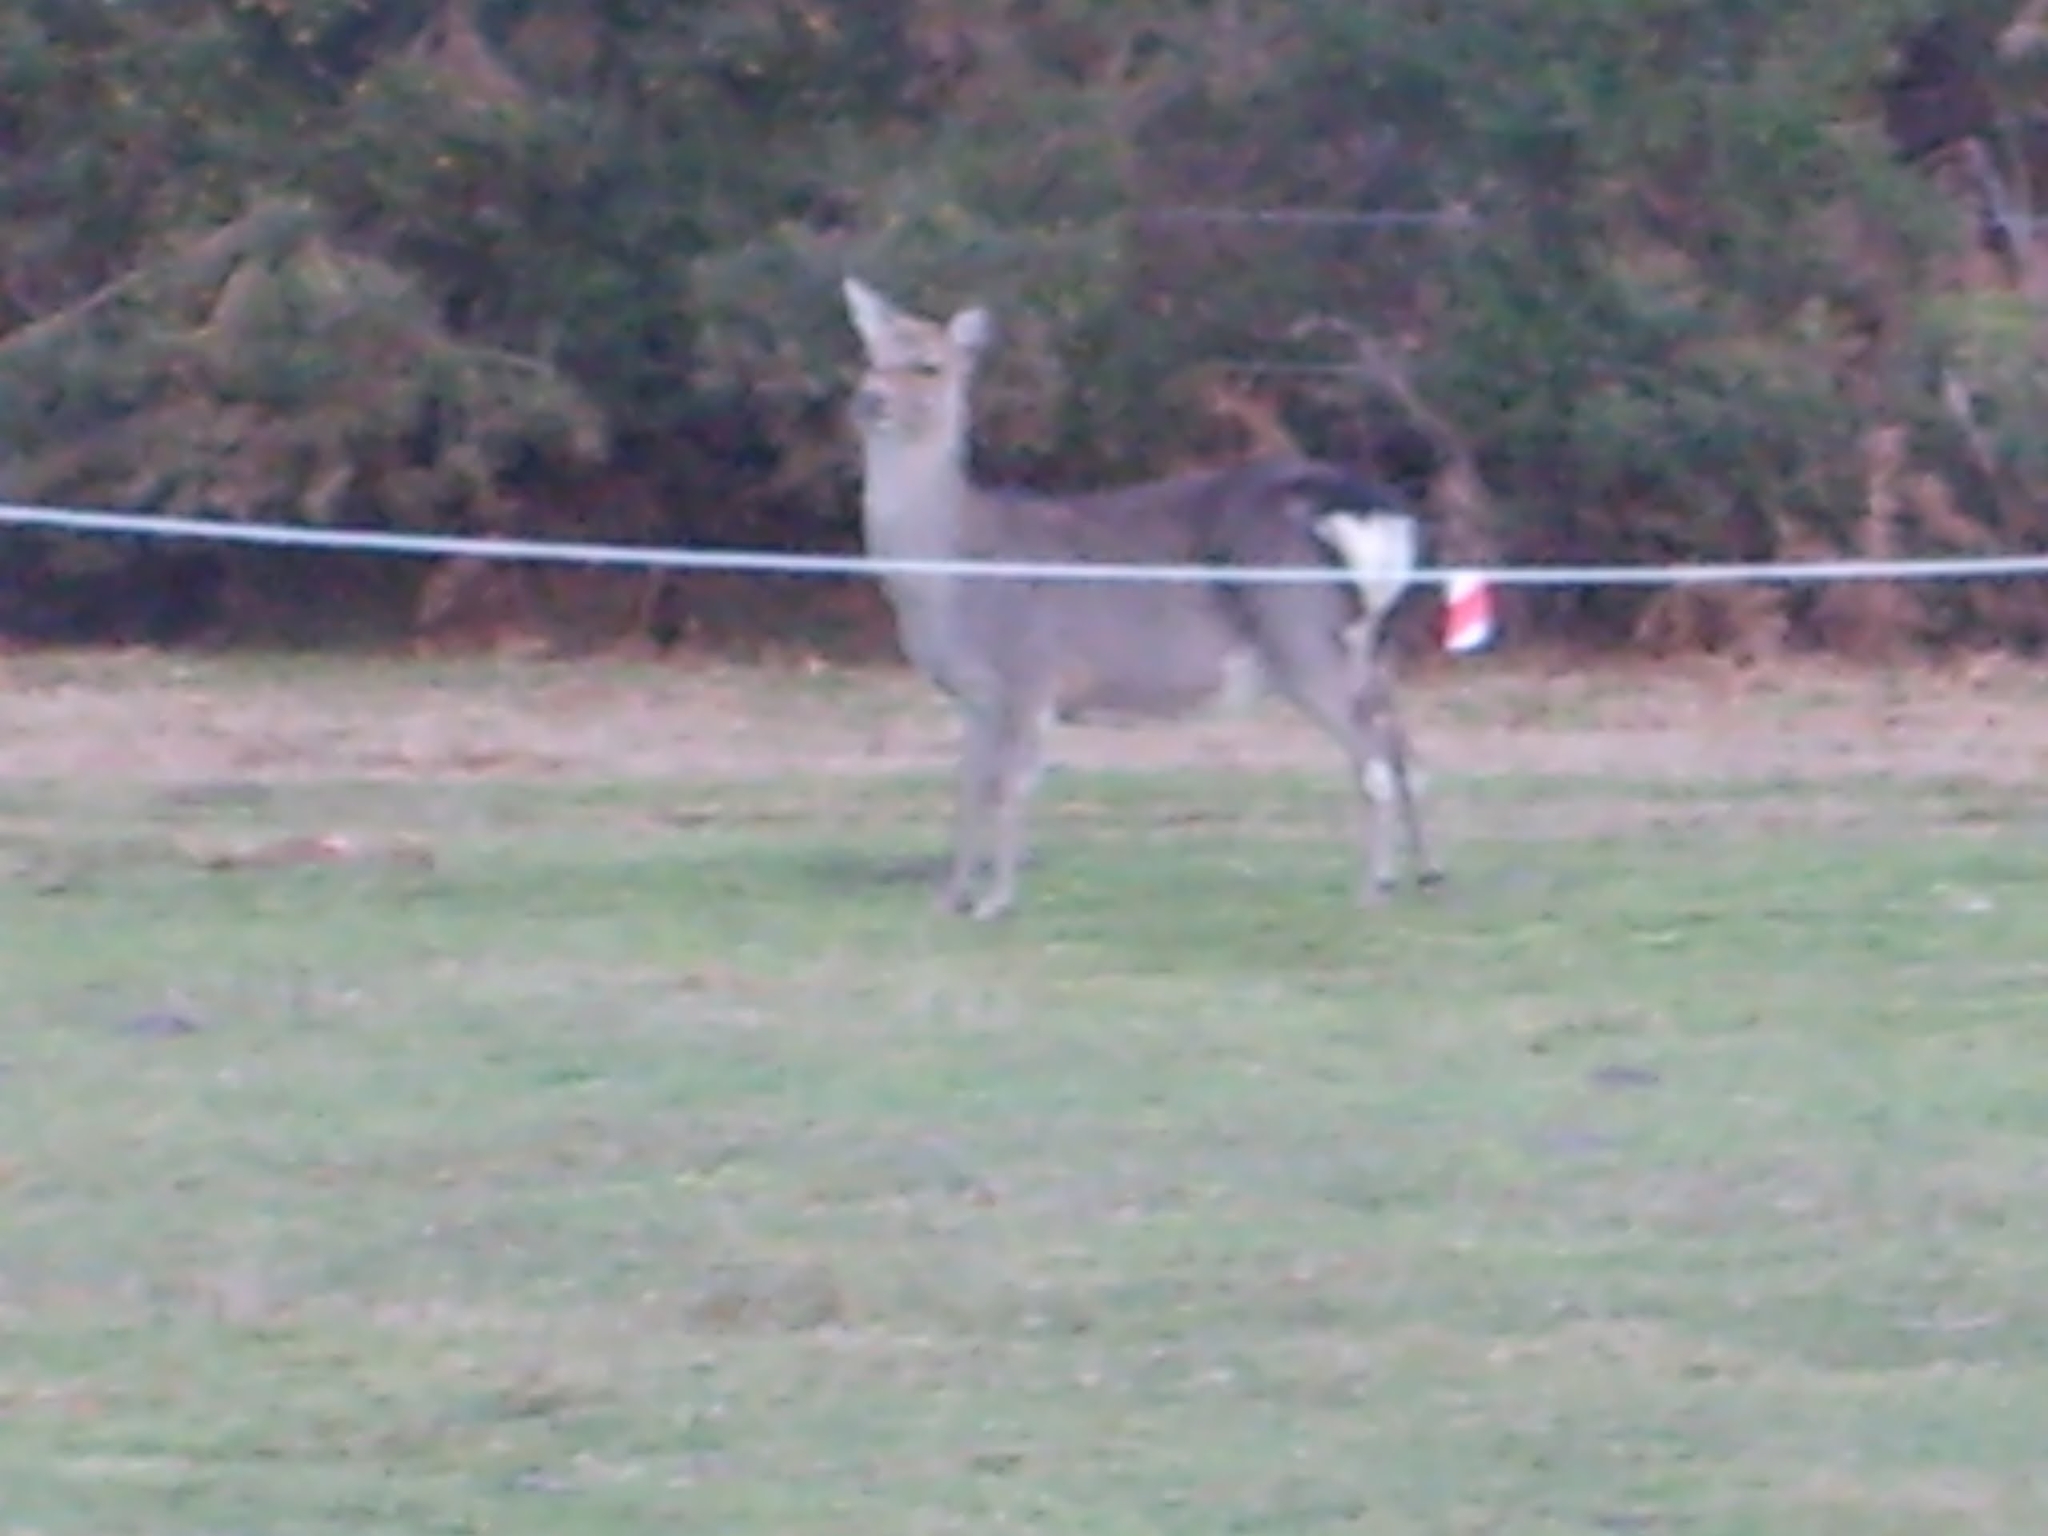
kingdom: Animalia
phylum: Chordata
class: Mammalia
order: Artiodactyla
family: Cervidae
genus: Cervus
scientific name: Cervus nippon
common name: Sika deer
